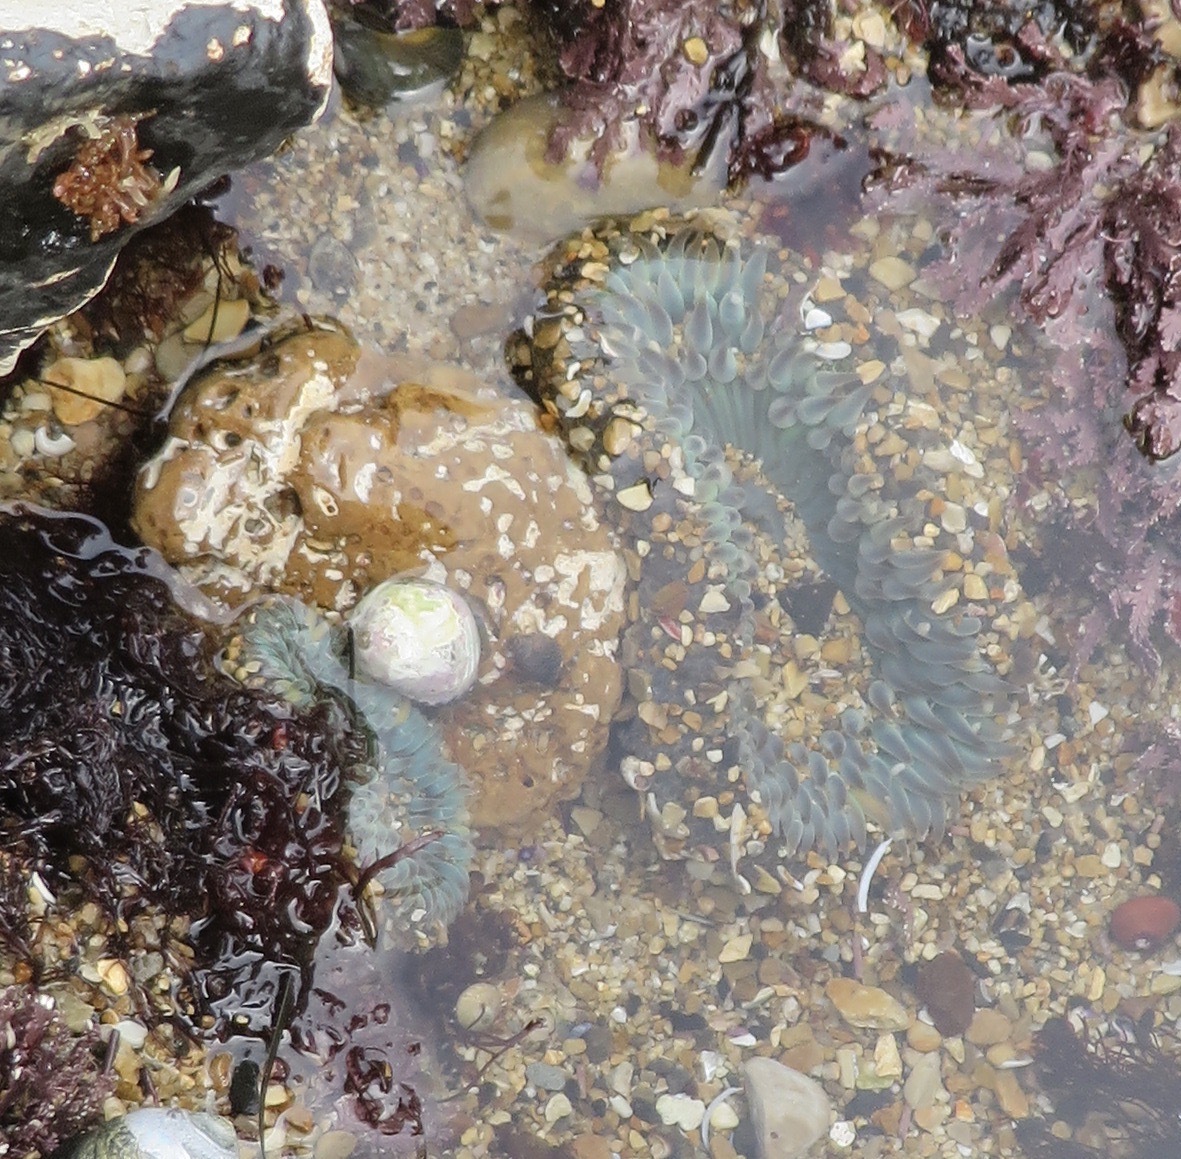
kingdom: Animalia
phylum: Cnidaria
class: Anthozoa
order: Actiniaria
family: Actiniidae
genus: Anthopleura
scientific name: Anthopleura sola
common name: Sun anemone
